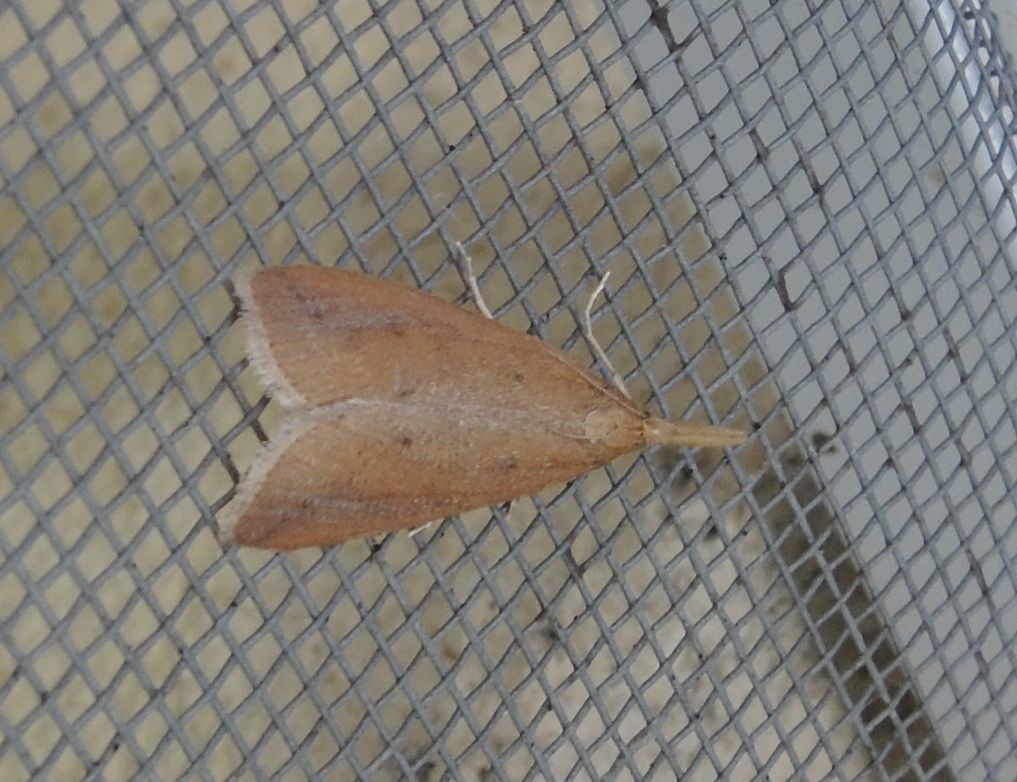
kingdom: Animalia
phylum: Arthropoda
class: Insecta
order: Lepidoptera
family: Crambidae
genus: Schoenobius
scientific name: Schoenobius gigantella
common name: Giant water-veneer
